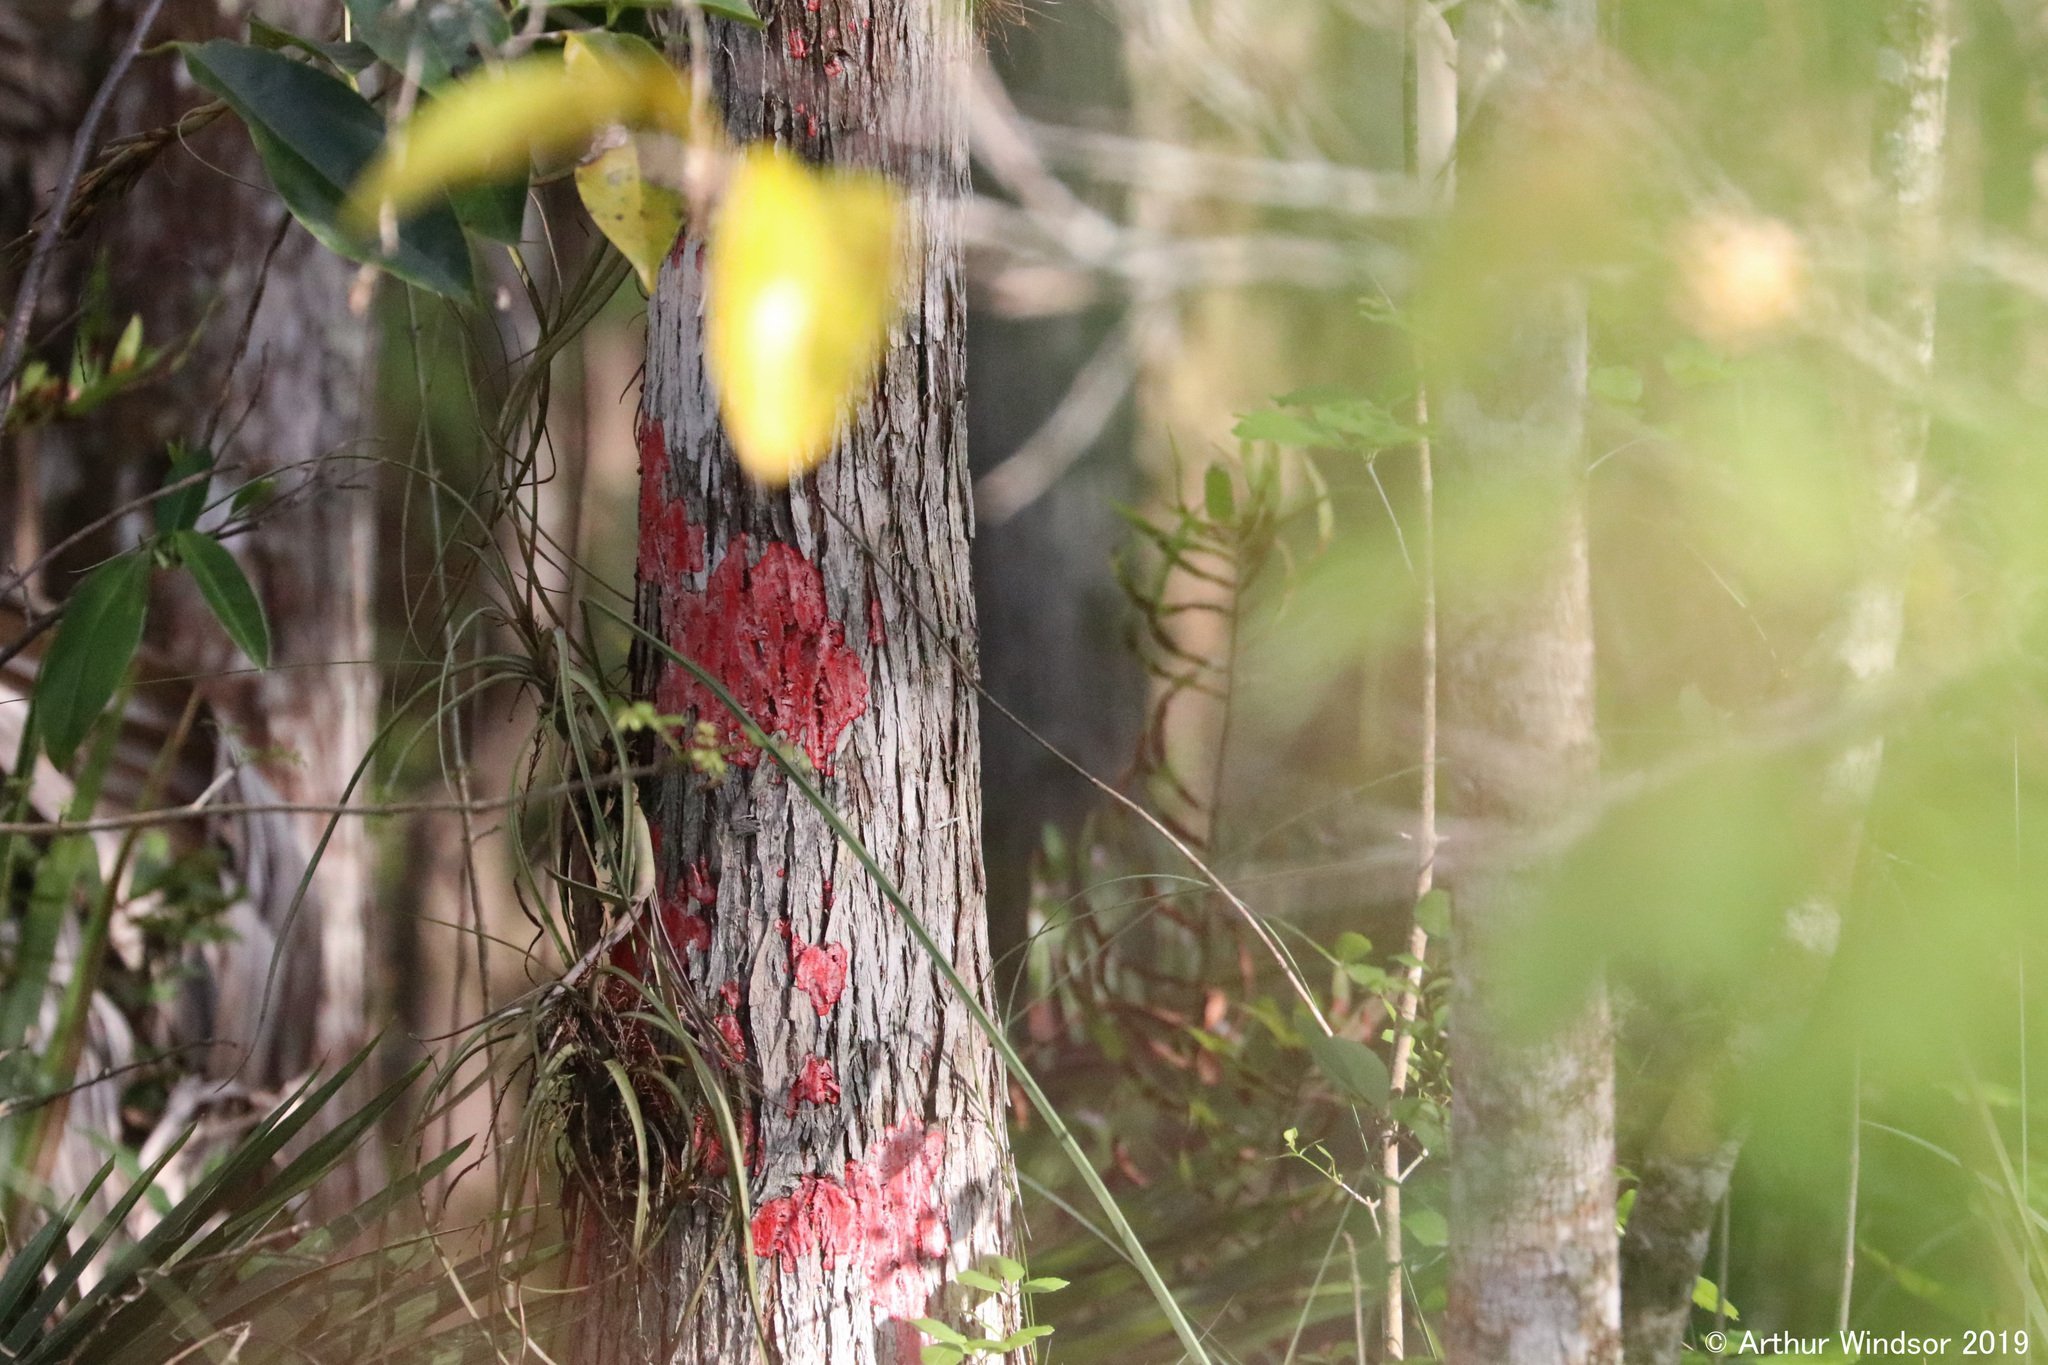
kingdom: Fungi
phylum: Ascomycota
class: Arthoniomycetes
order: Arthoniales
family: Arthoniaceae
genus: Herpothallon
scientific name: Herpothallon rubrocinctum
